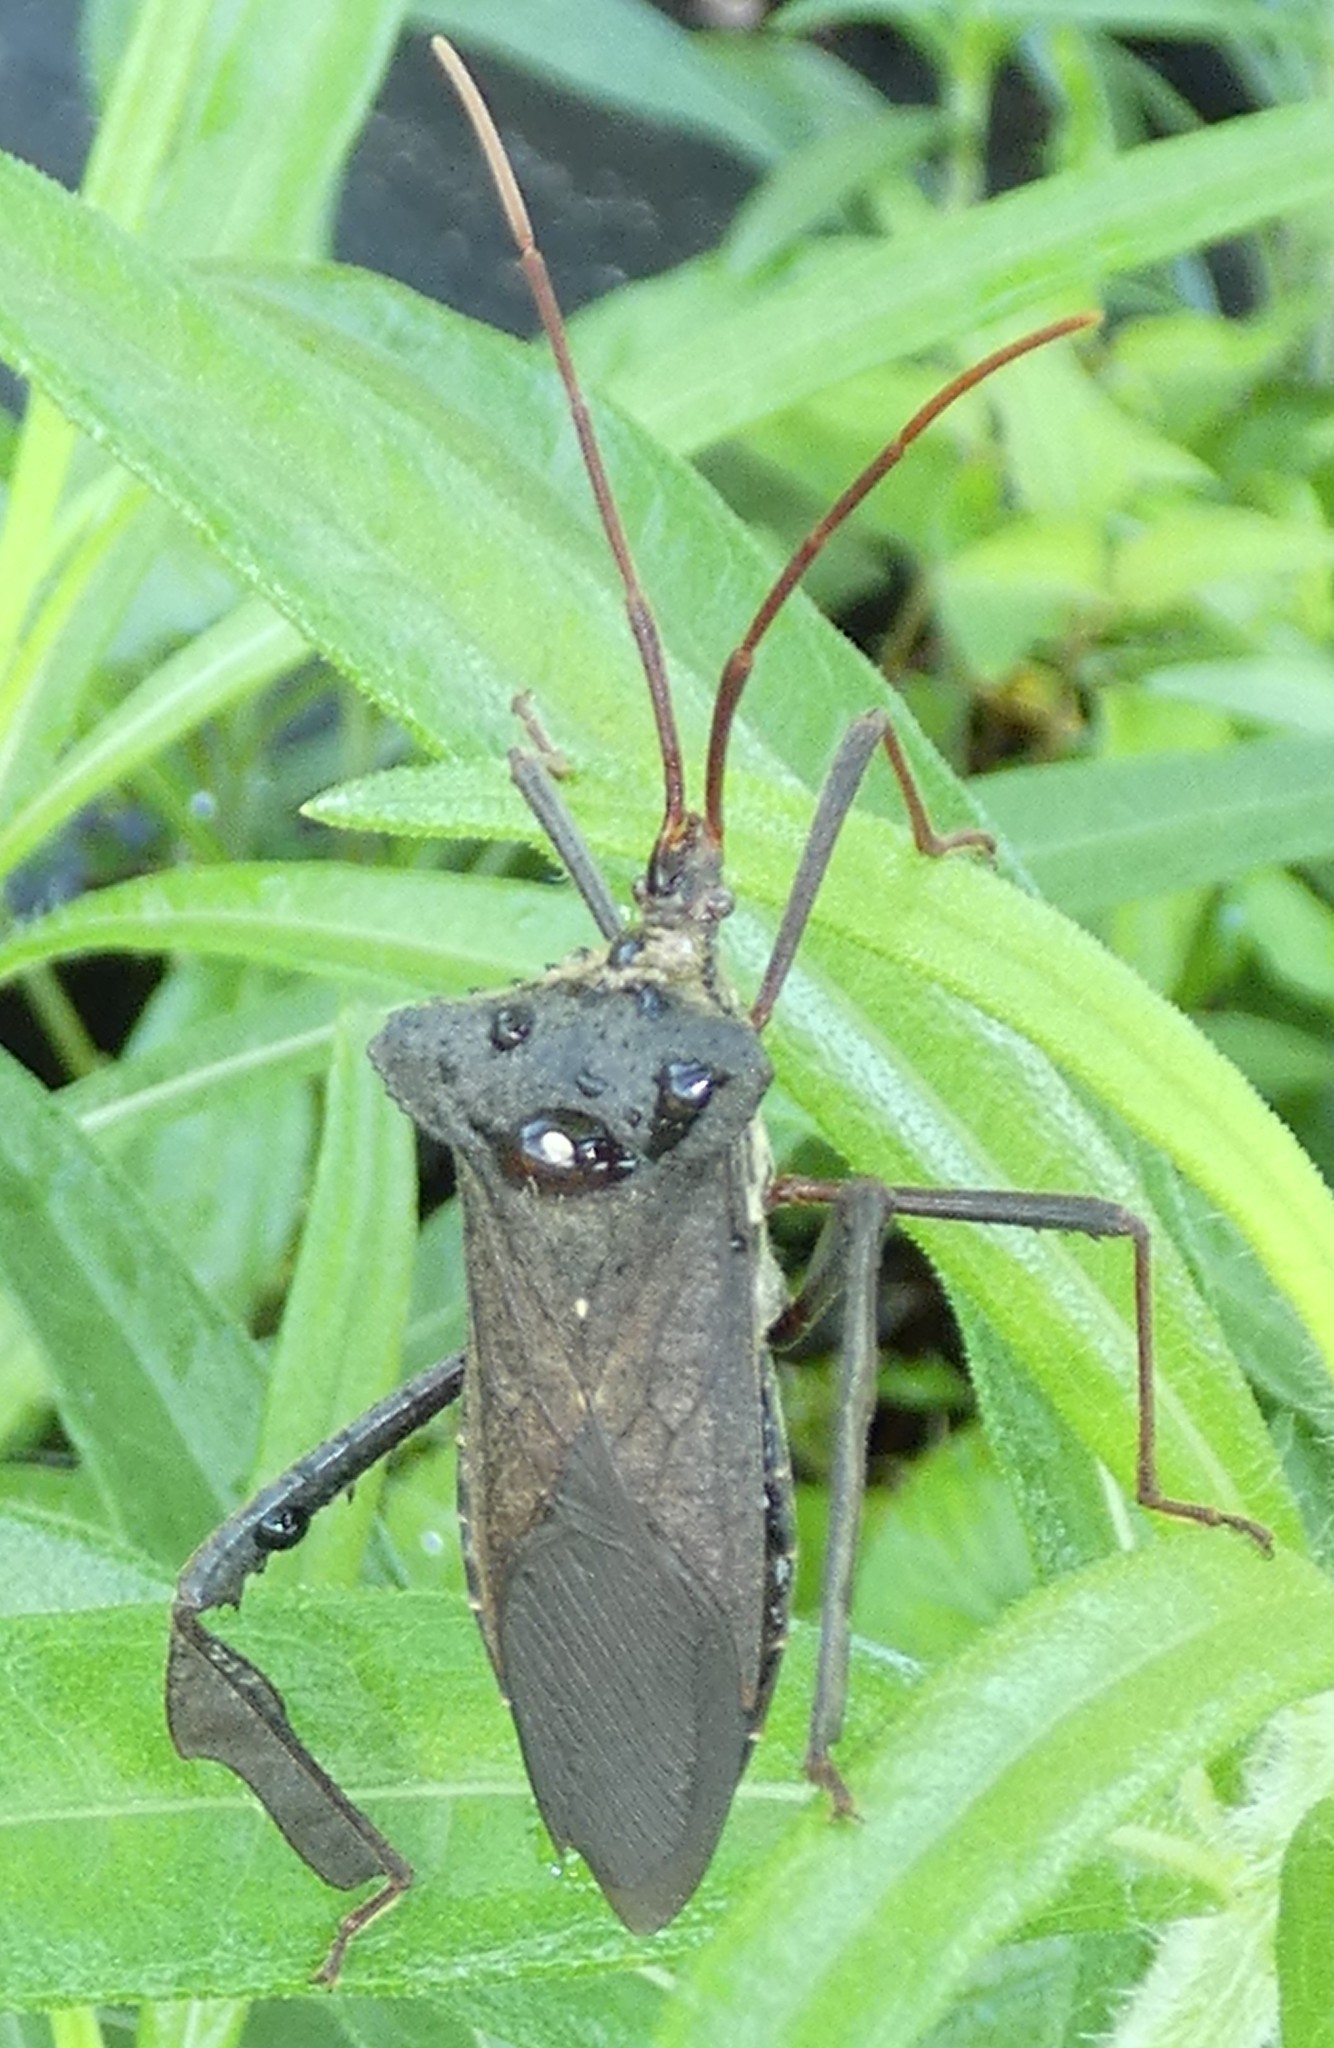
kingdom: Animalia
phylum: Arthropoda
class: Insecta
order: Hemiptera
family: Coreidae
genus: Acanthocephala
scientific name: Acanthocephala declivis
